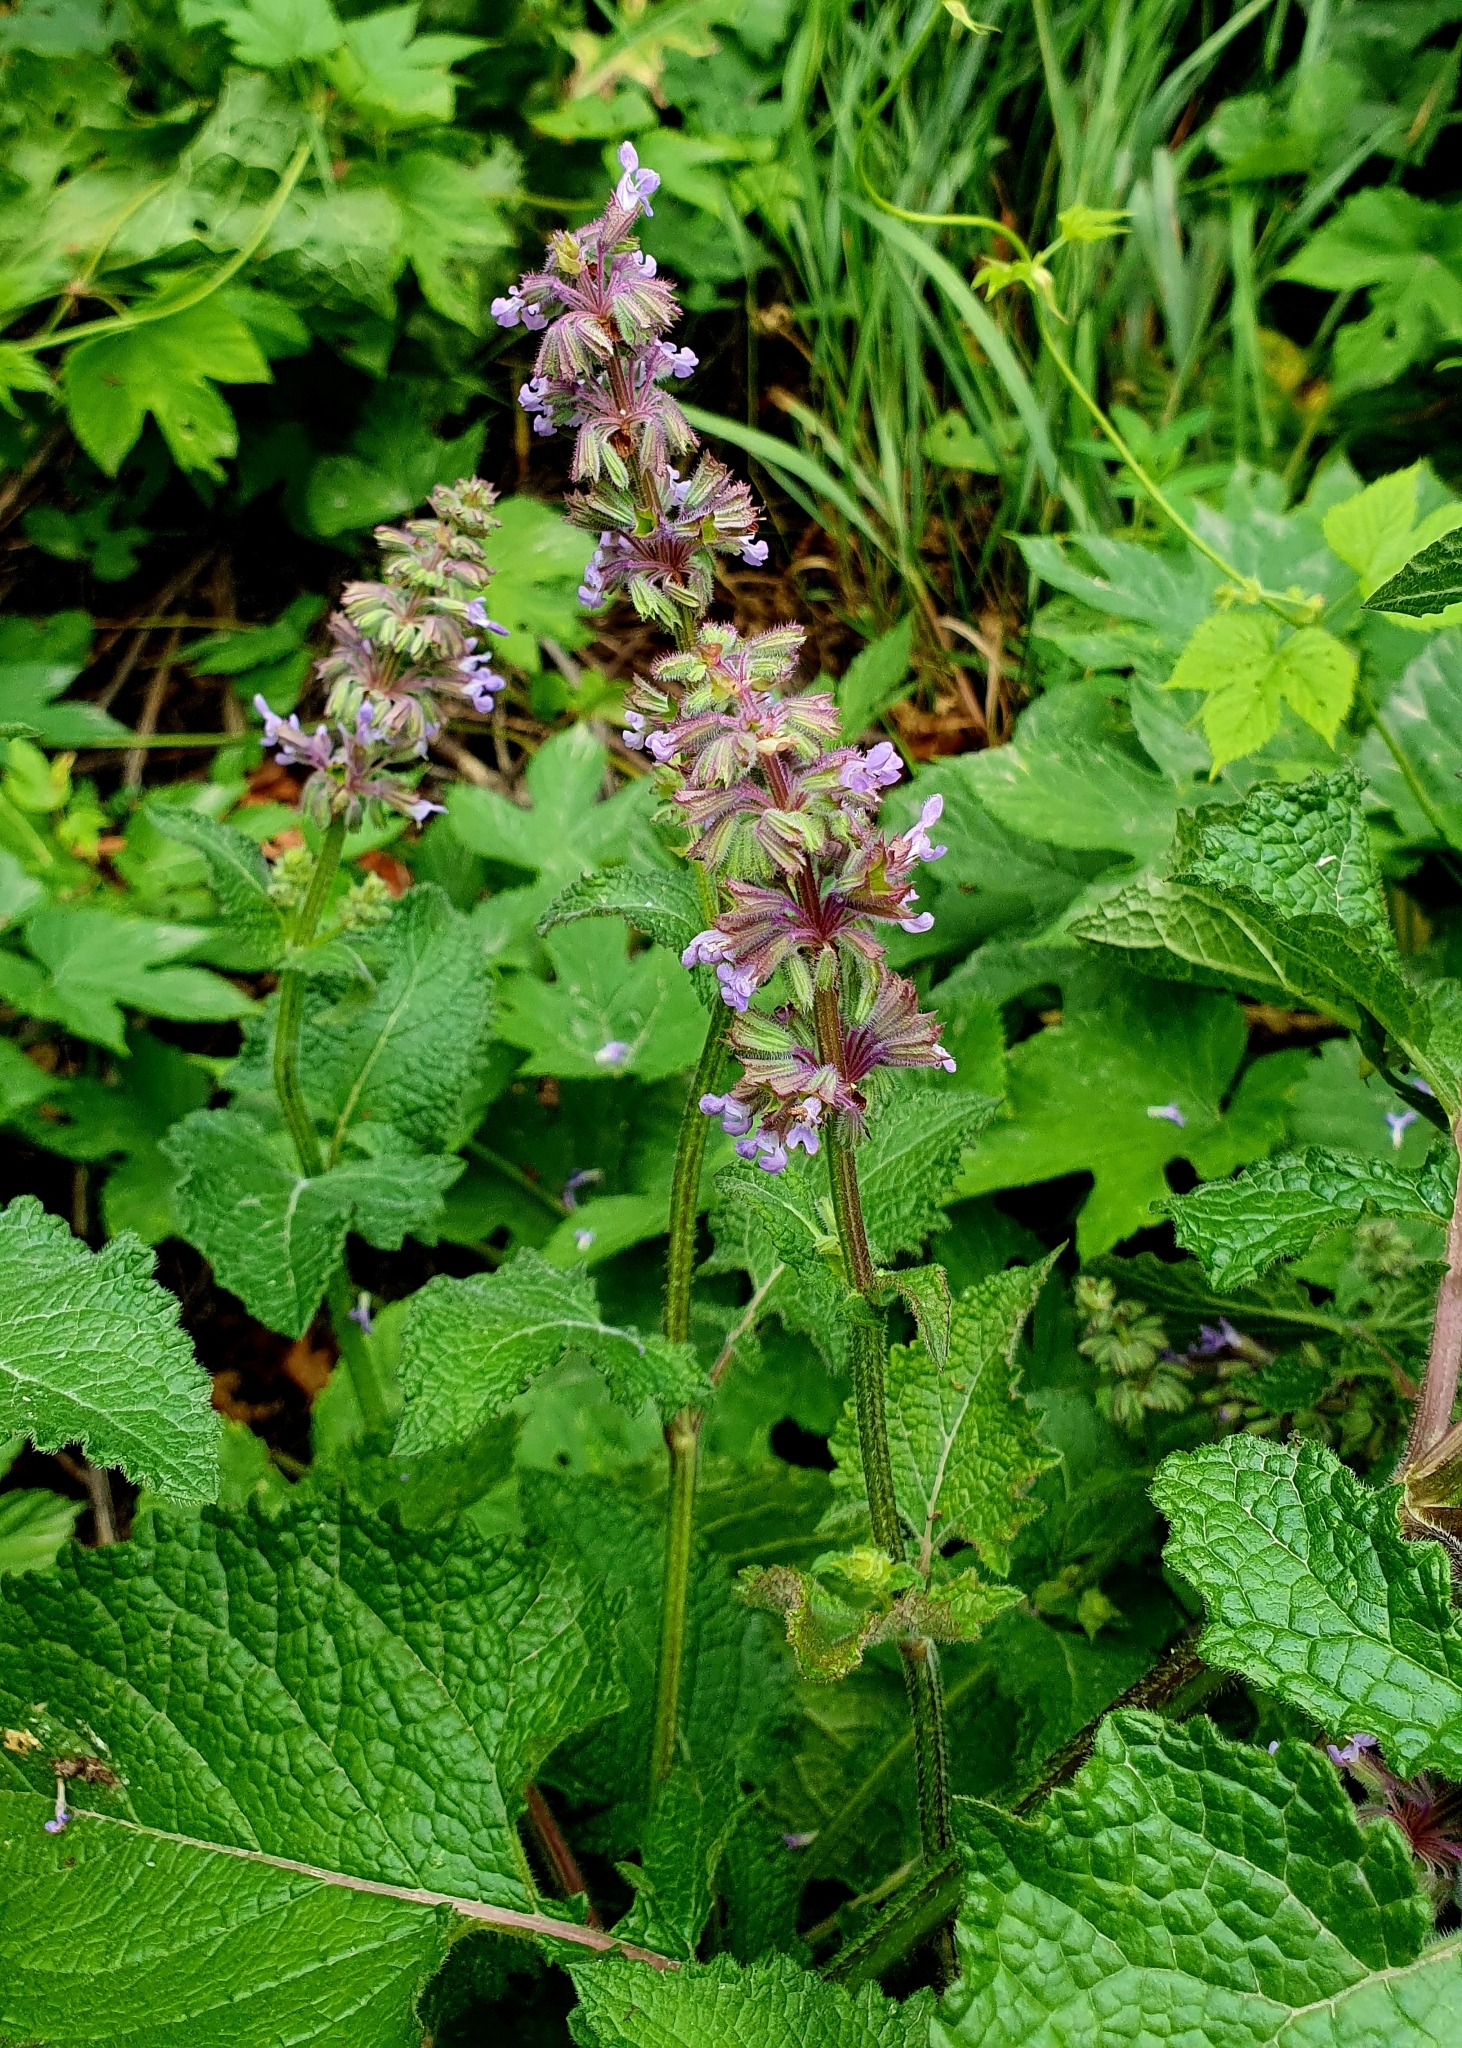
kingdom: Plantae
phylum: Tracheophyta
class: Magnoliopsida
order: Lamiales
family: Lamiaceae
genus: Salvia
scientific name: Salvia verticillata
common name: Whorled clary
